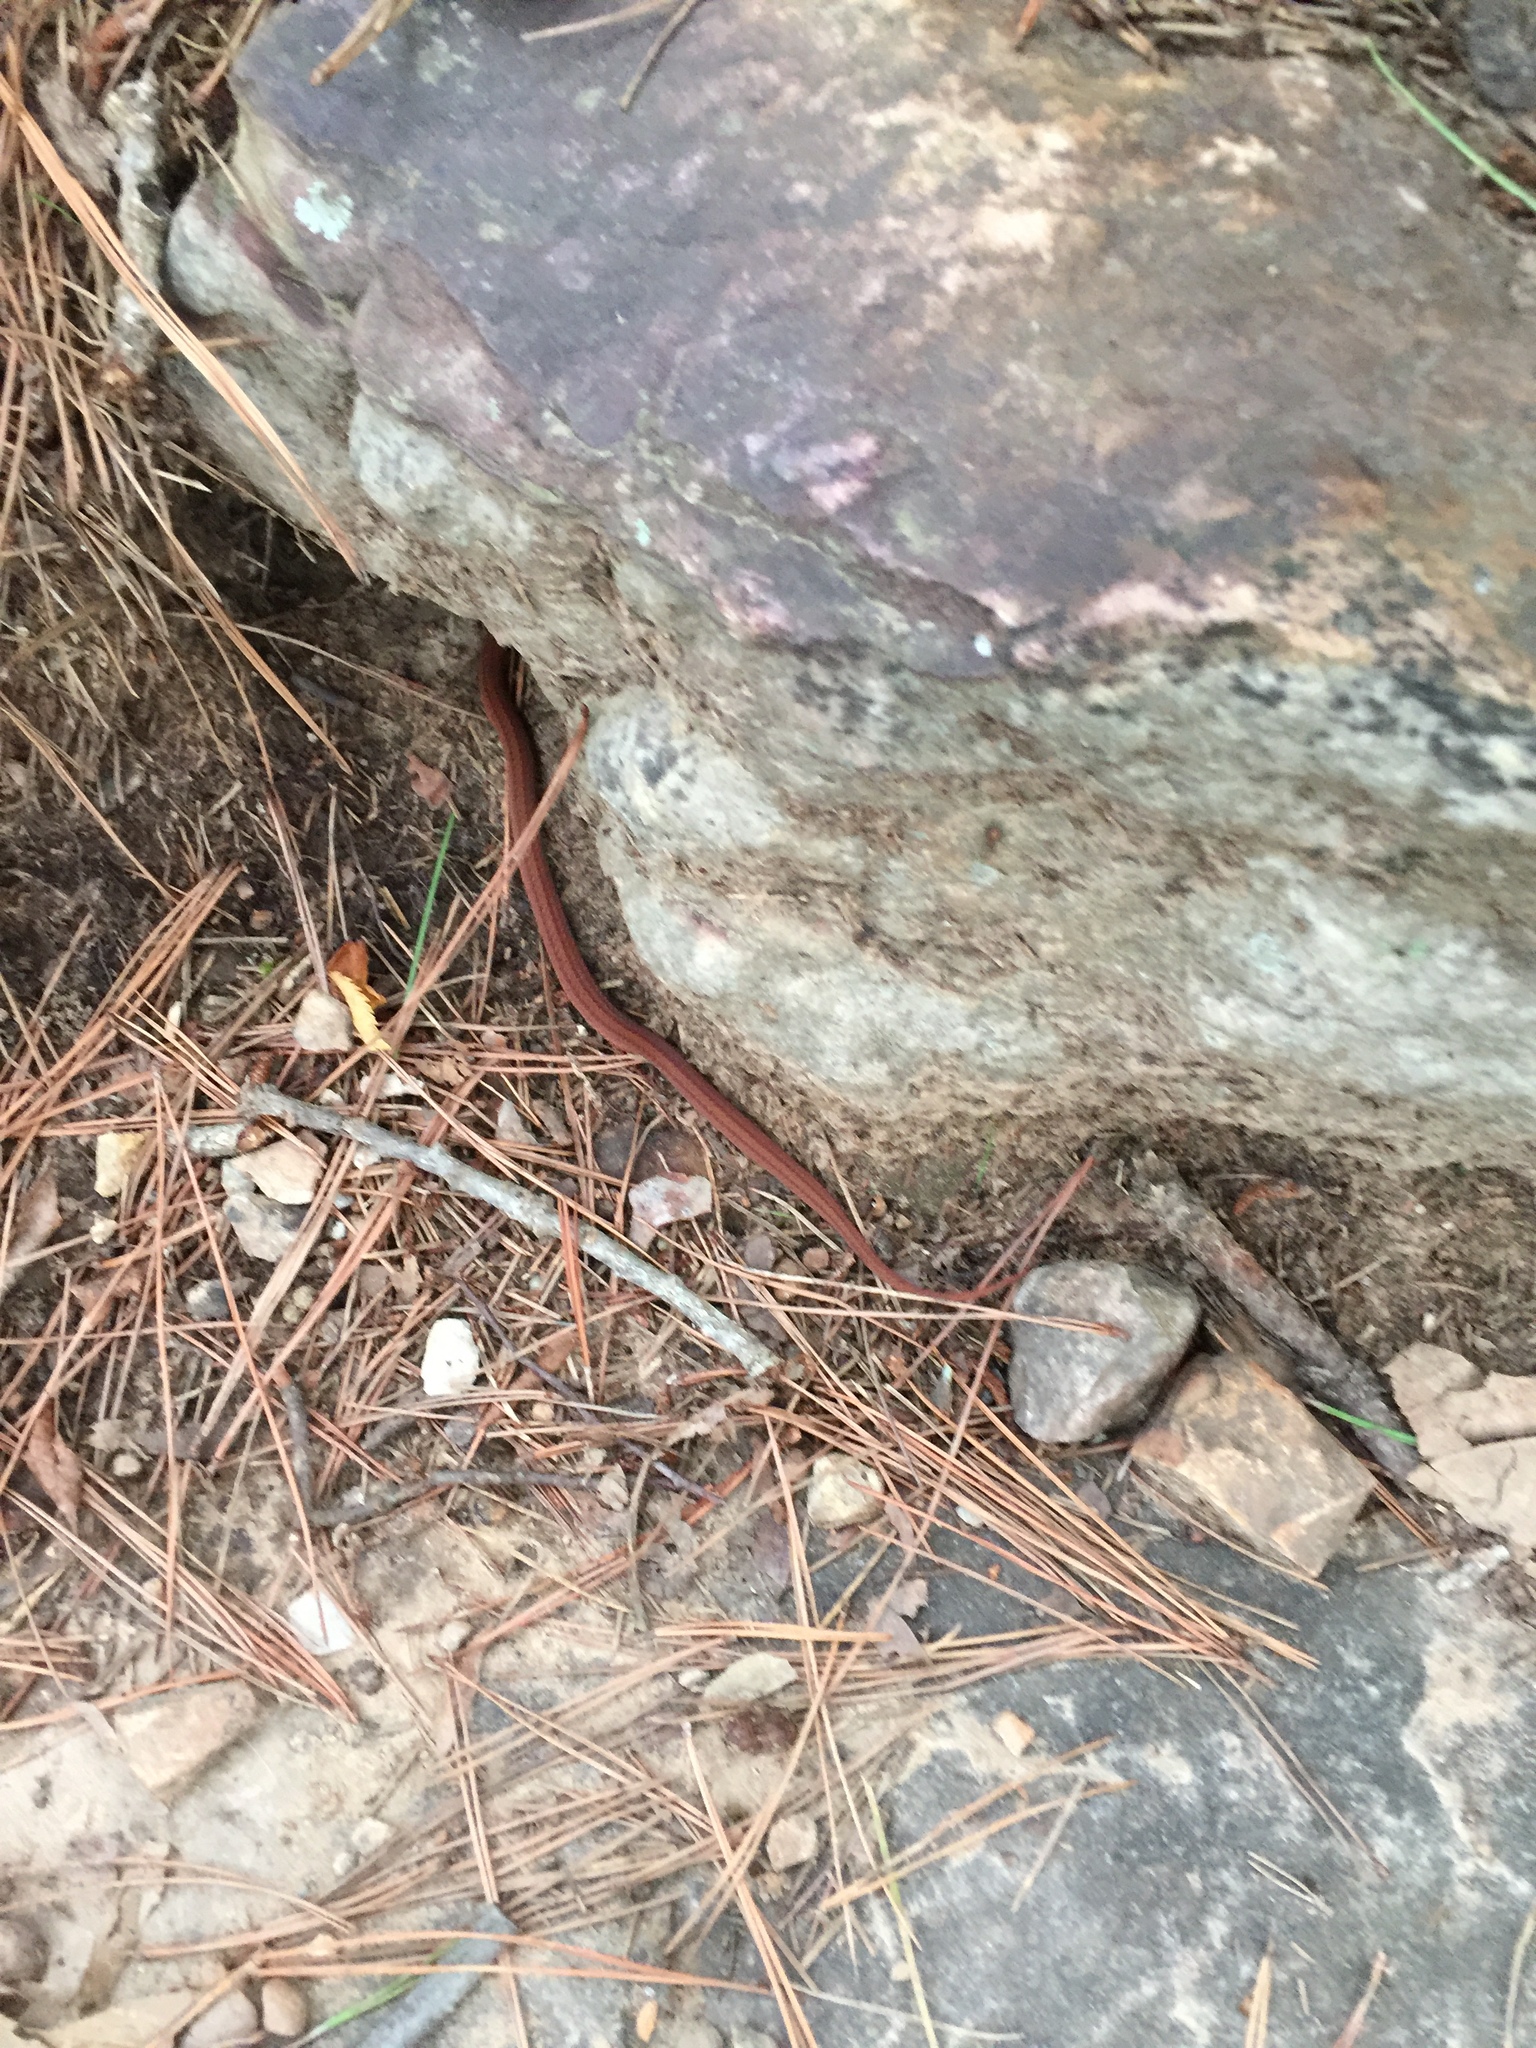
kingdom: Animalia
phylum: Chordata
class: Squamata
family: Colubridae
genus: Storeria
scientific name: Storeria occipitomaculata
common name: Redbelly snake
